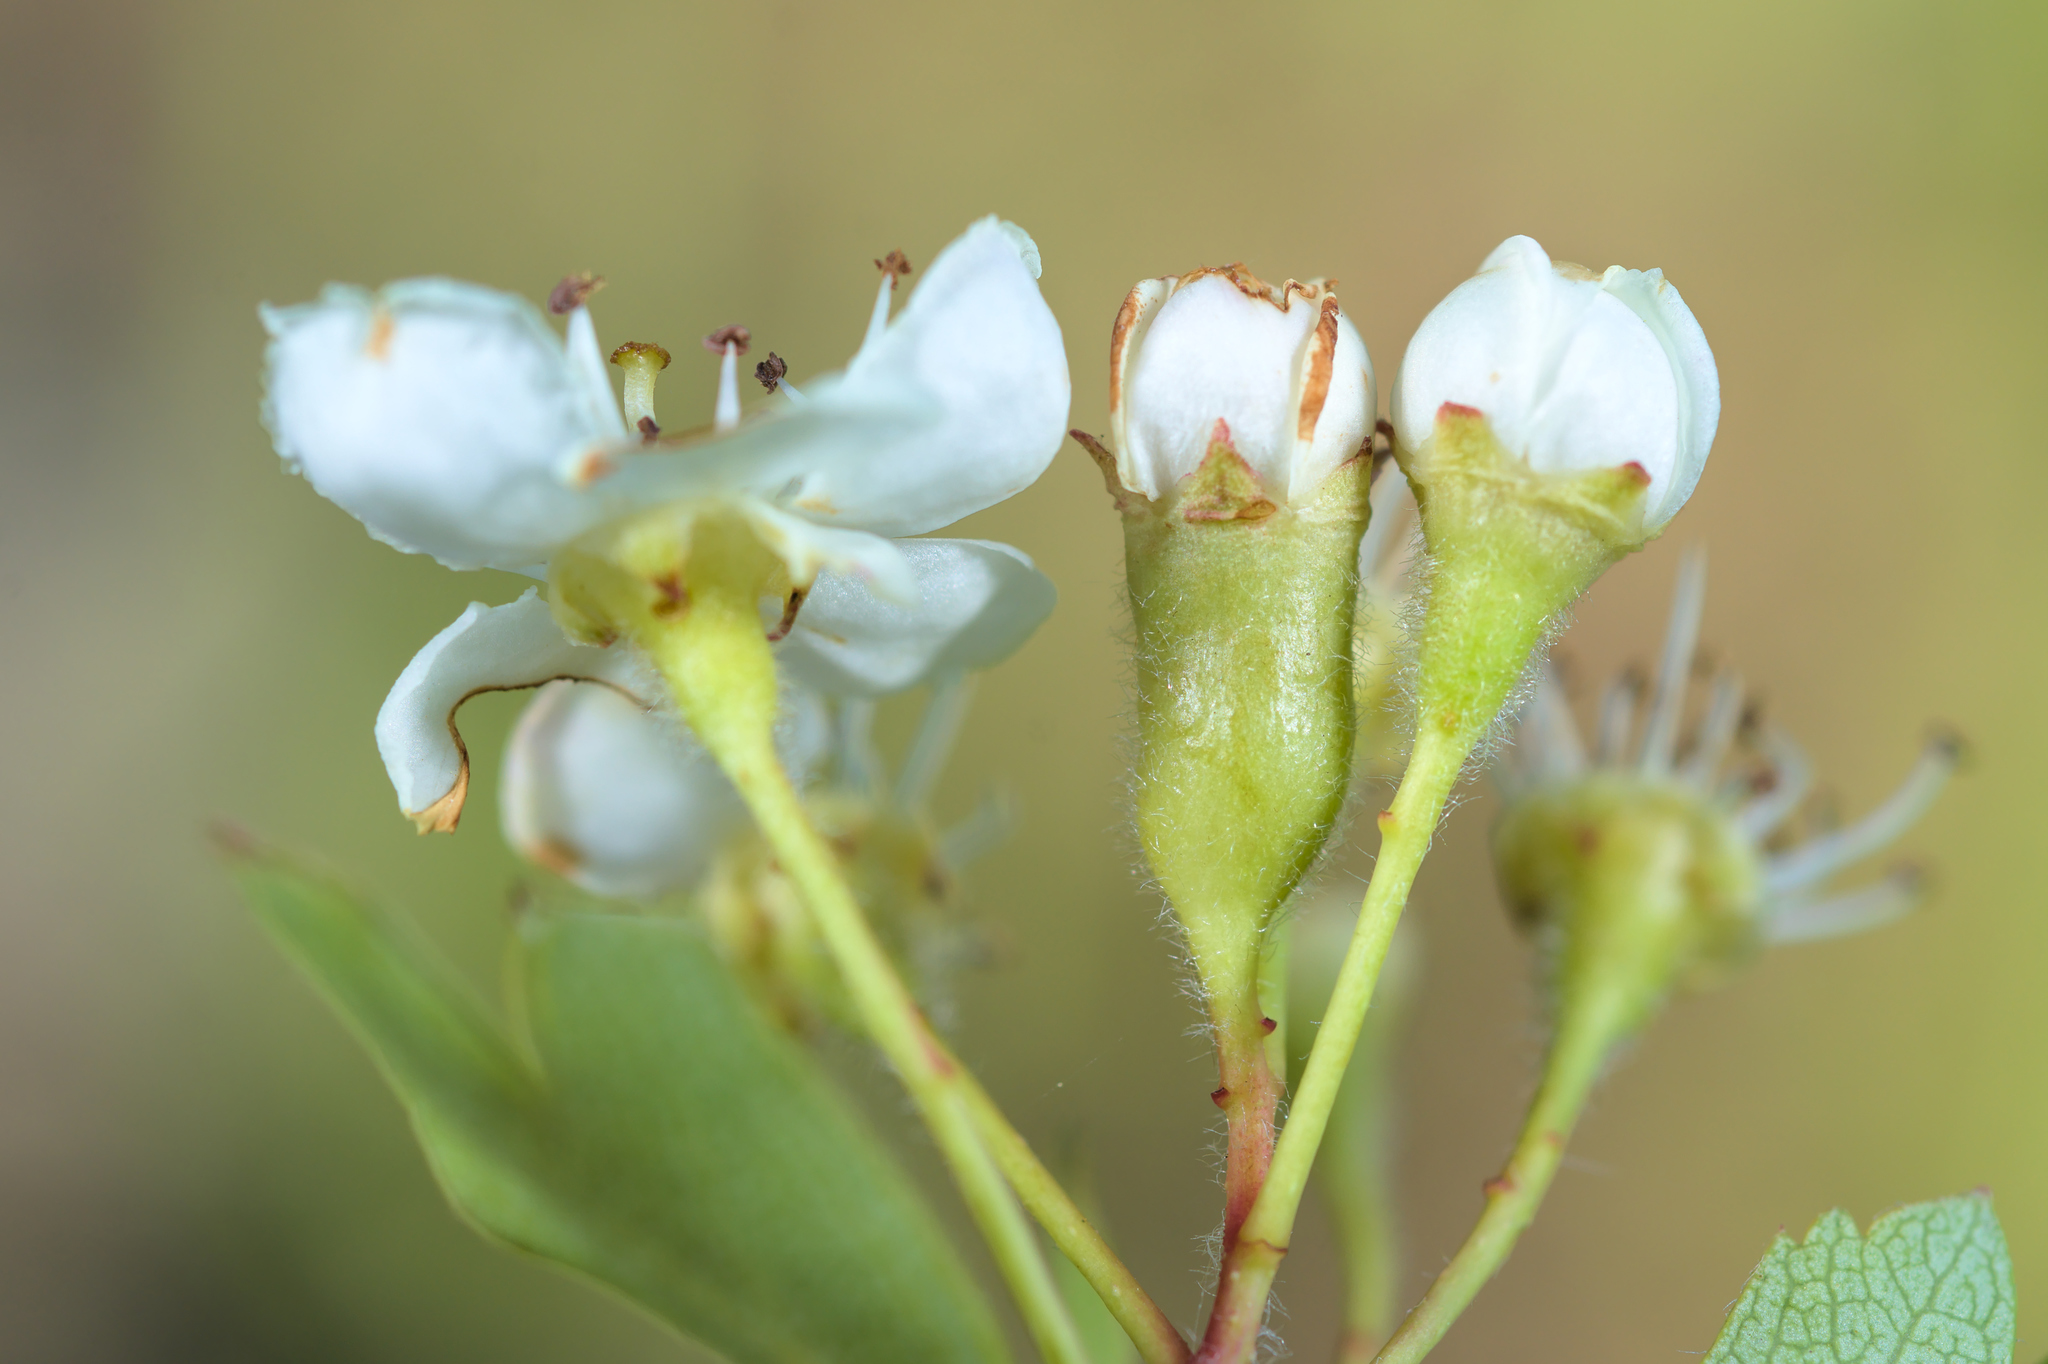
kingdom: Animalia
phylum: Arthropoda
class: Insecta
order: Diptera
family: Cecidomyiidae
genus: Contarinia
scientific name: Contarinia anthobia
